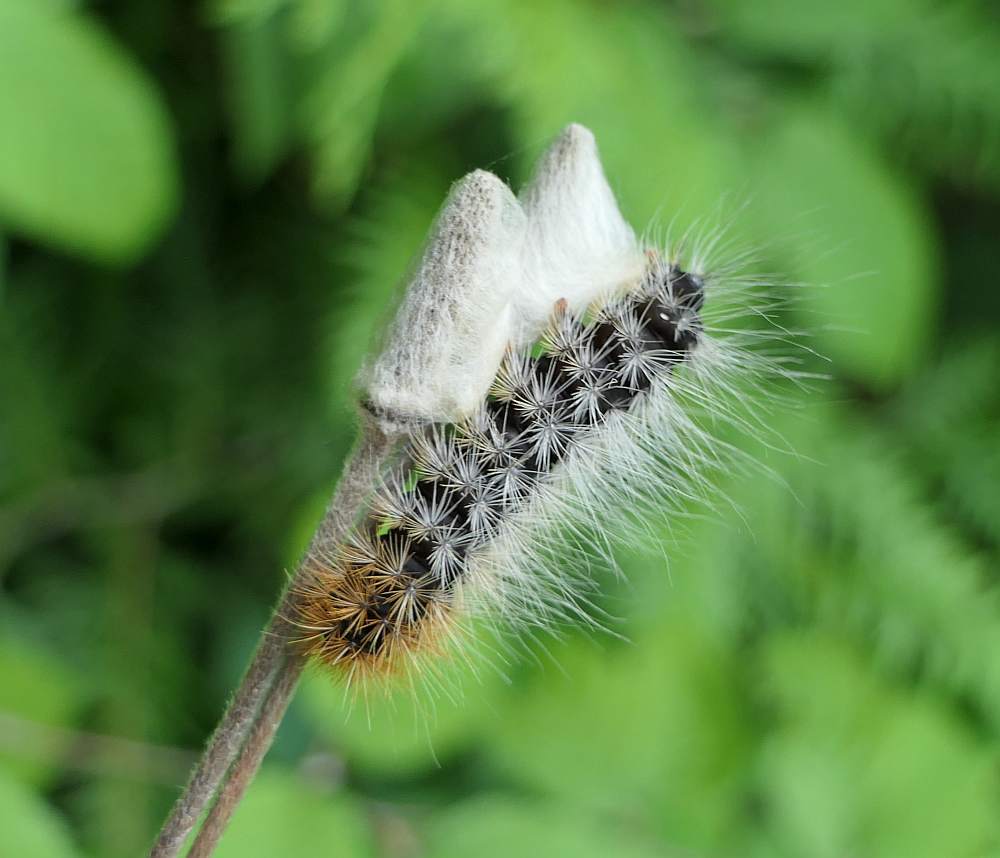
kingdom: Animalia
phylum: Arthropoda
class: Insecta
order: Lepidoptera
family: Noctuidae
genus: Acronicta
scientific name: Acronicta impressa
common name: Impressed dagger
